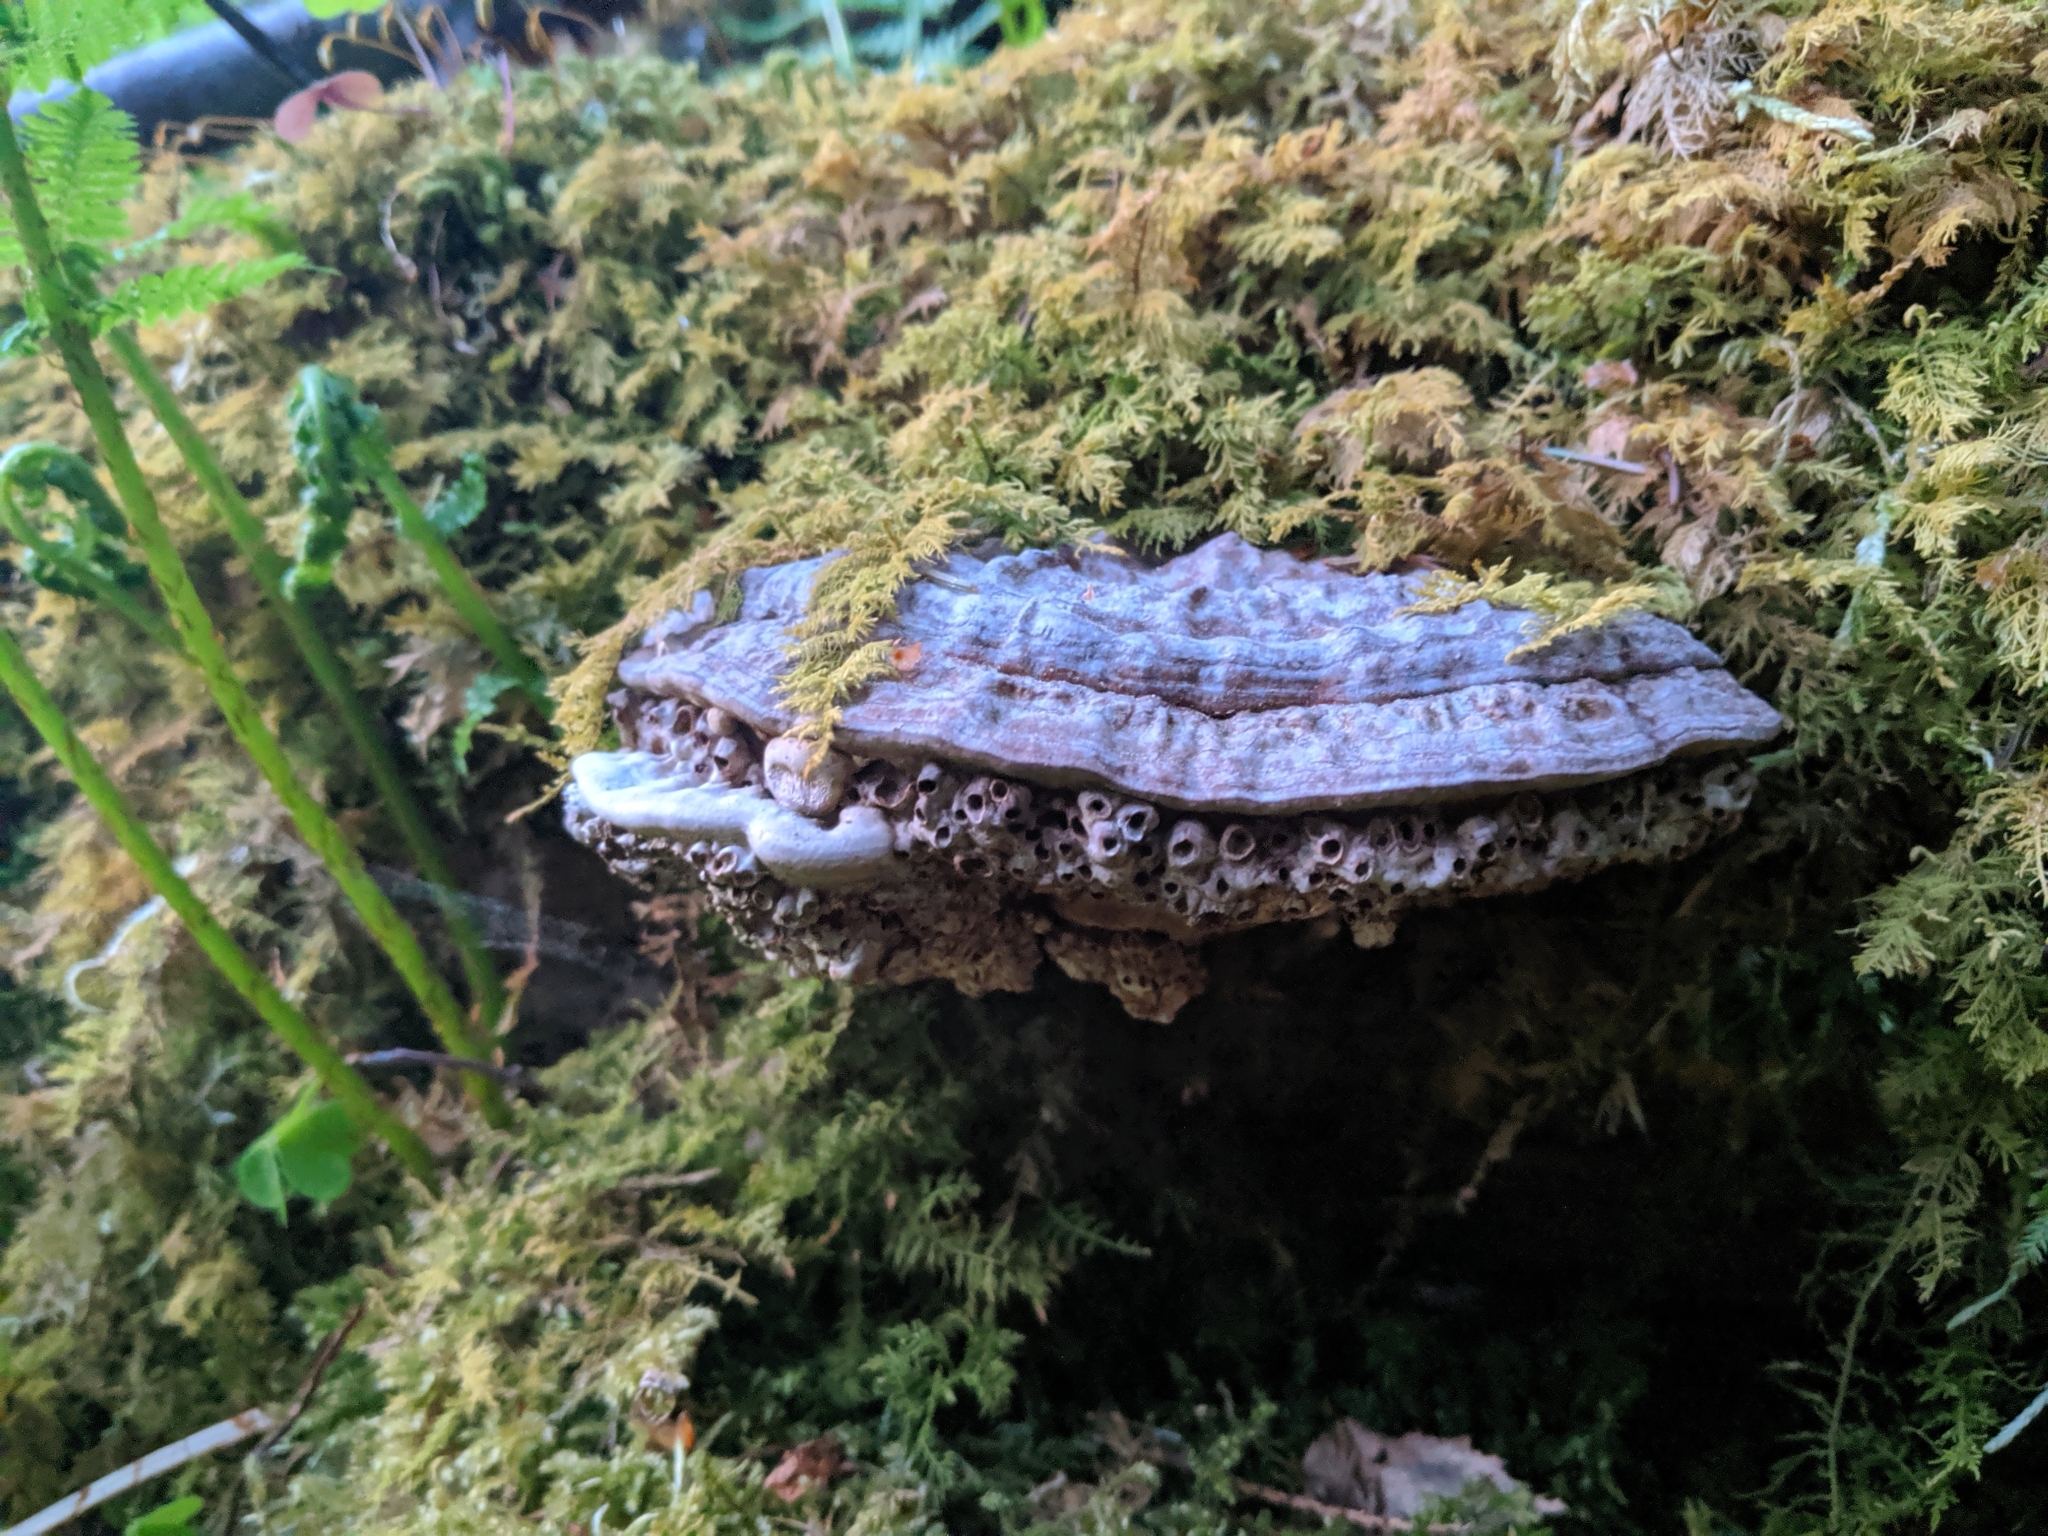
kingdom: Animalia
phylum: Arthropoda
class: Insecta
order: Diptera
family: Platypezidae
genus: Agathomyia
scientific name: Agathomyia wankowiczii
